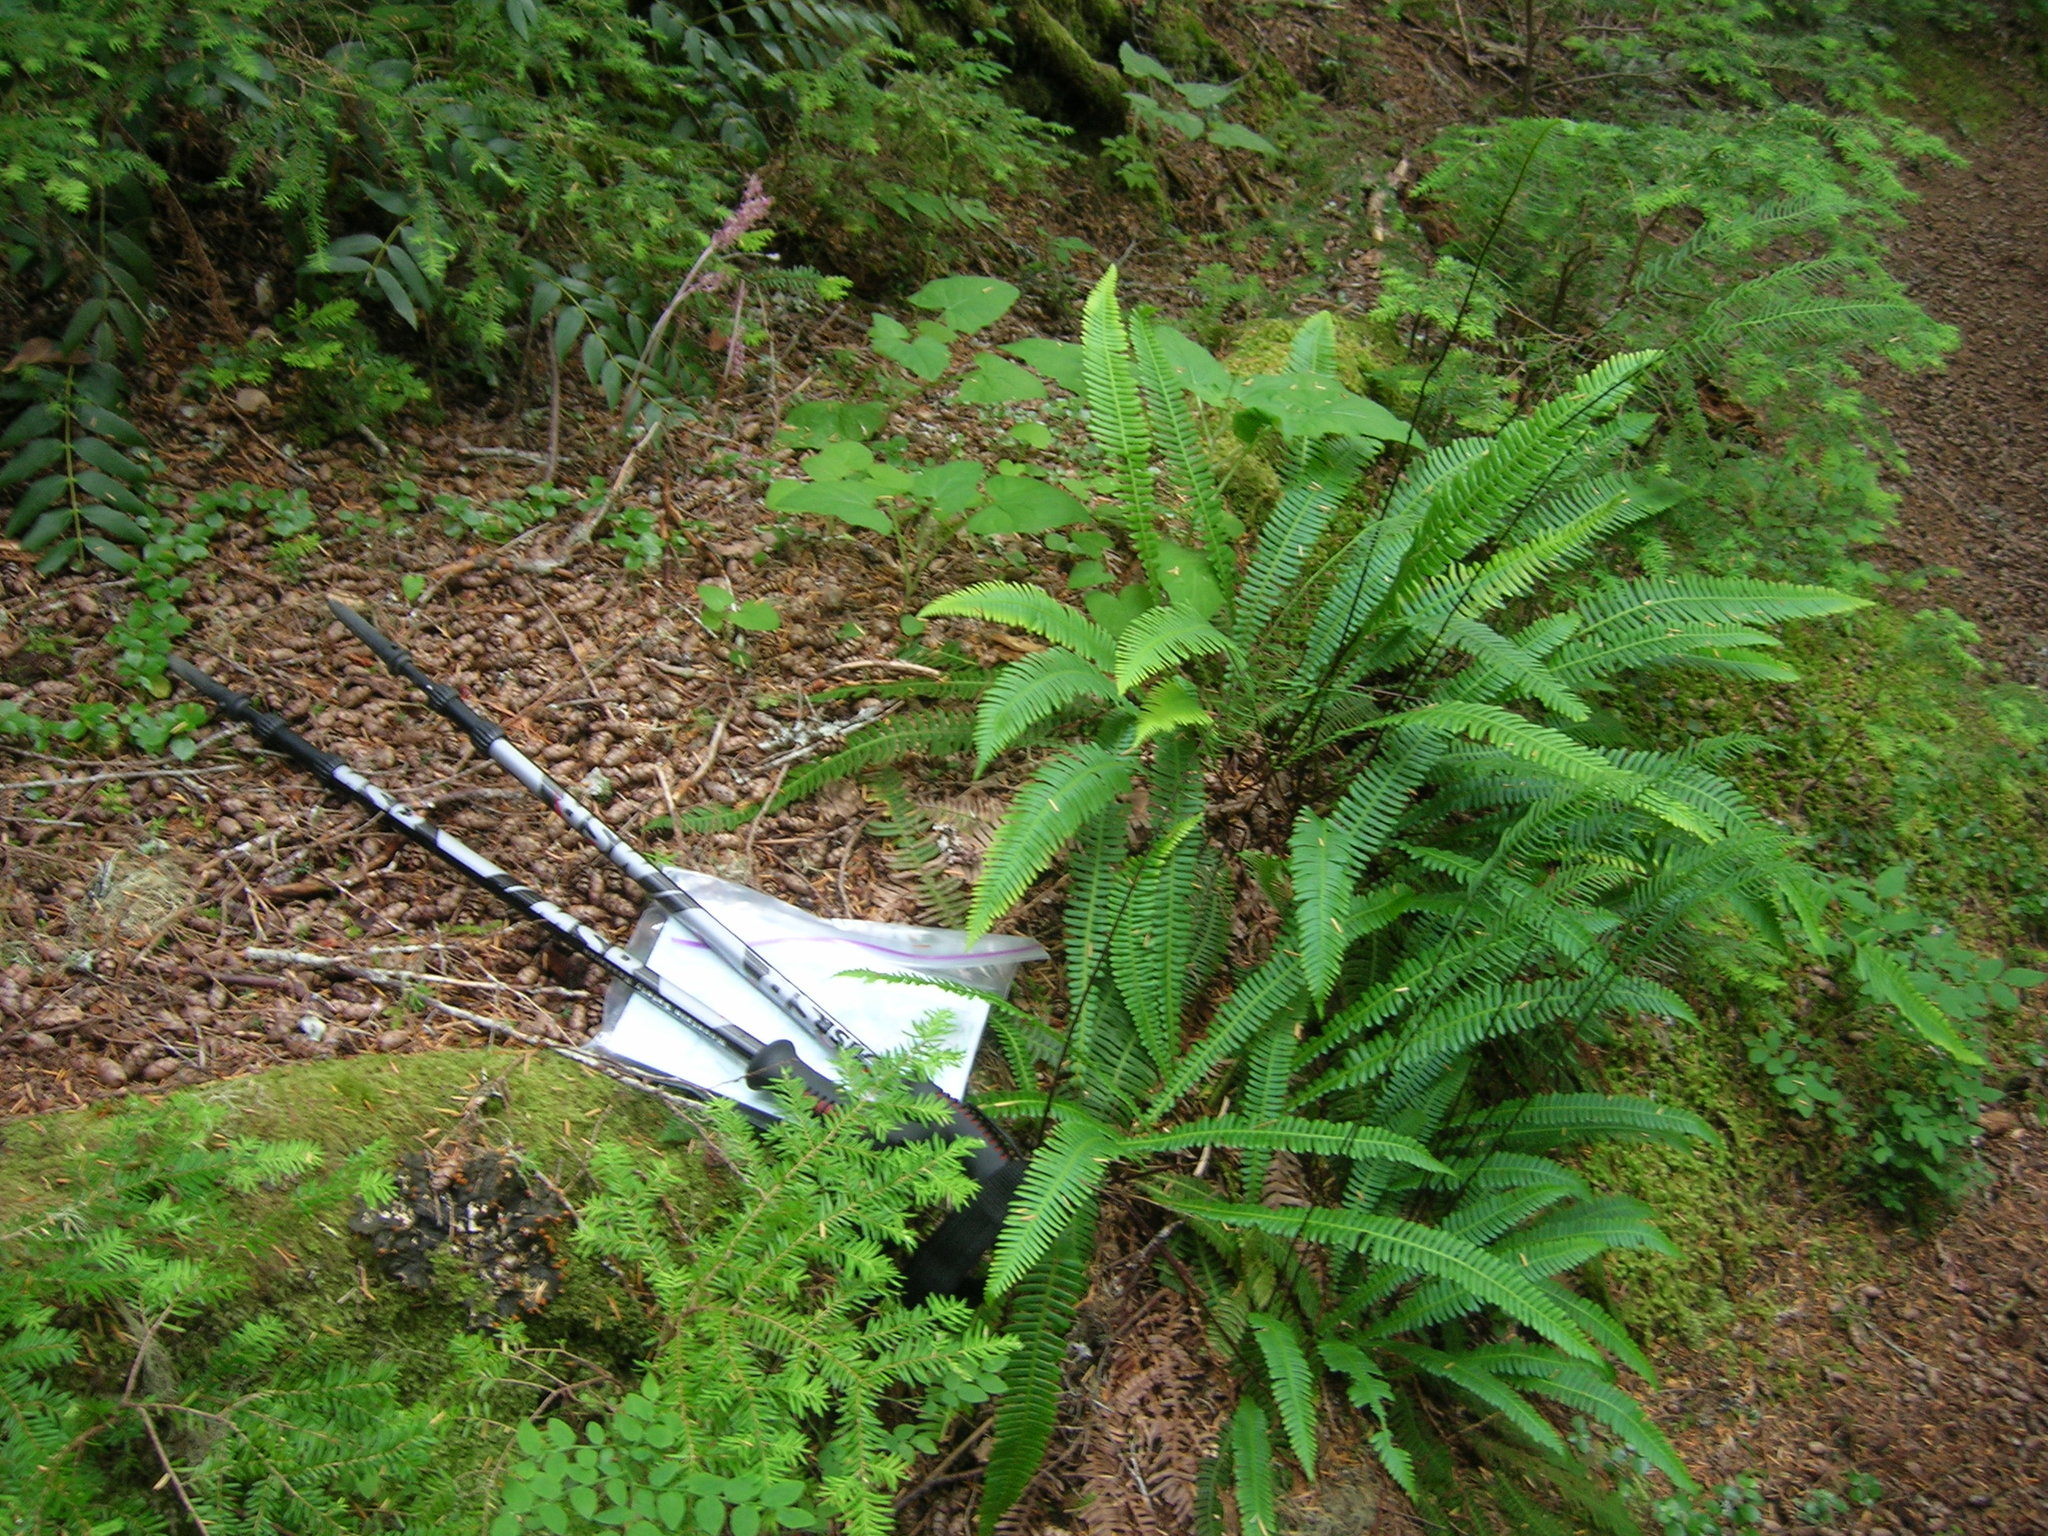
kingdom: Plantae
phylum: Tracheophyta
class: Polypodiopsida
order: Polypodiales
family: Blechnaceae
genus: Struthiopteris
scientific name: Struthiopteris spicant
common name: Deer fern
